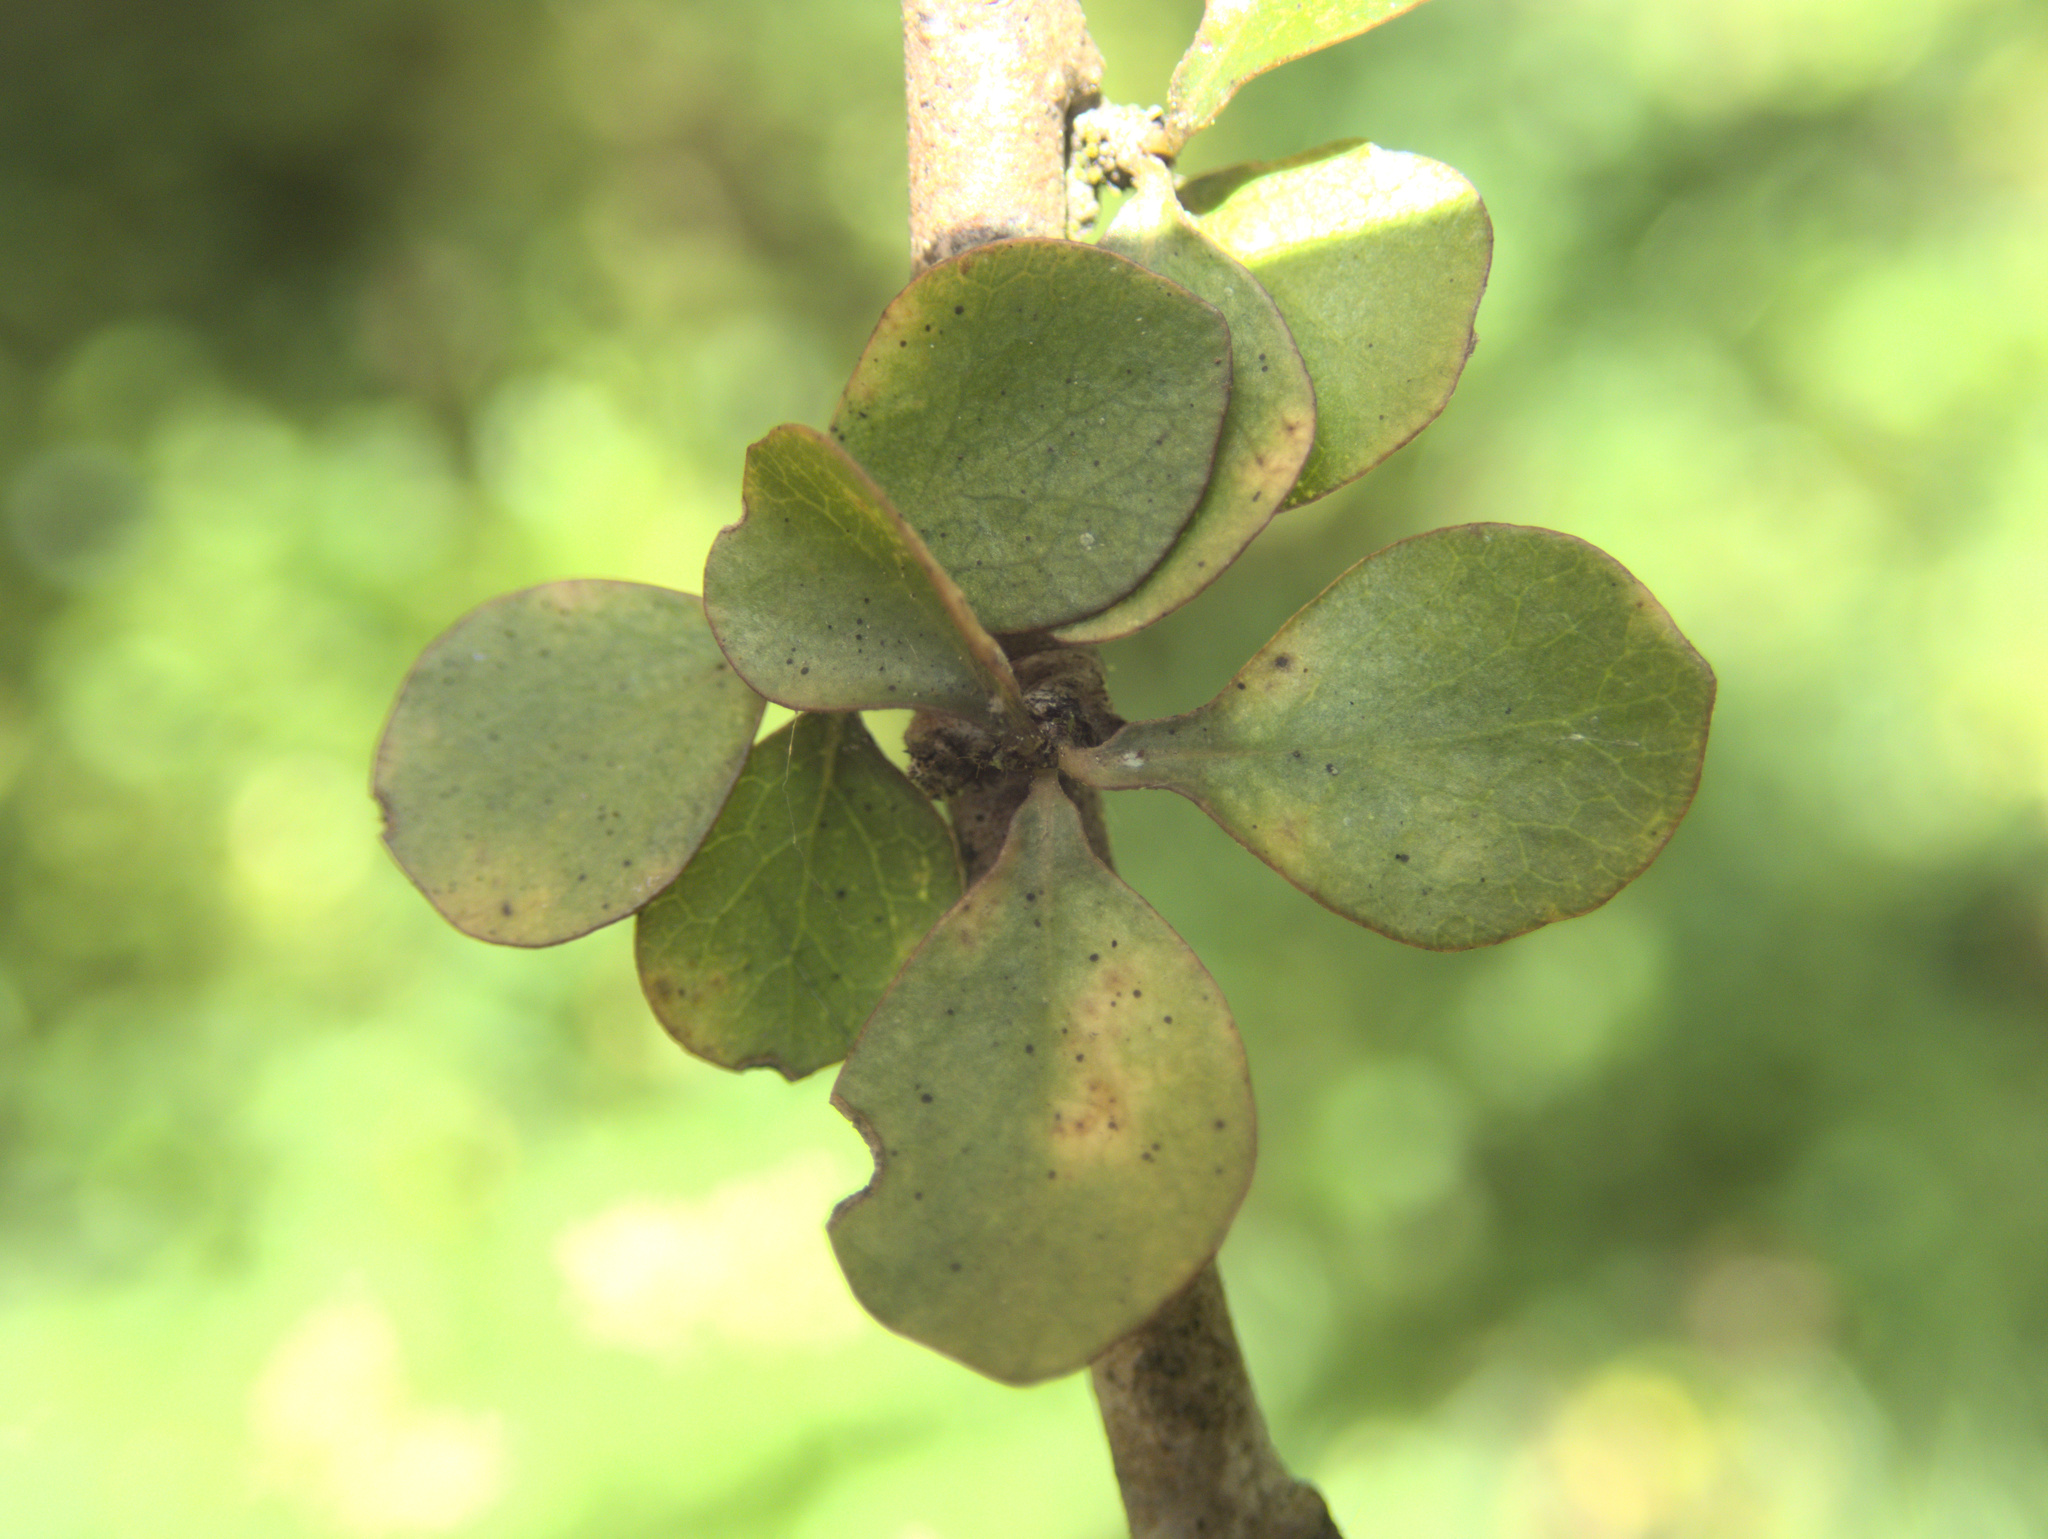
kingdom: Plantae
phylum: Tracheophyta
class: Magnoliopsida
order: Apiales
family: Pittosporaceae
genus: Pittosporum
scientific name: Pittosporum obcordatum
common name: Heart-leaved kohuhu
